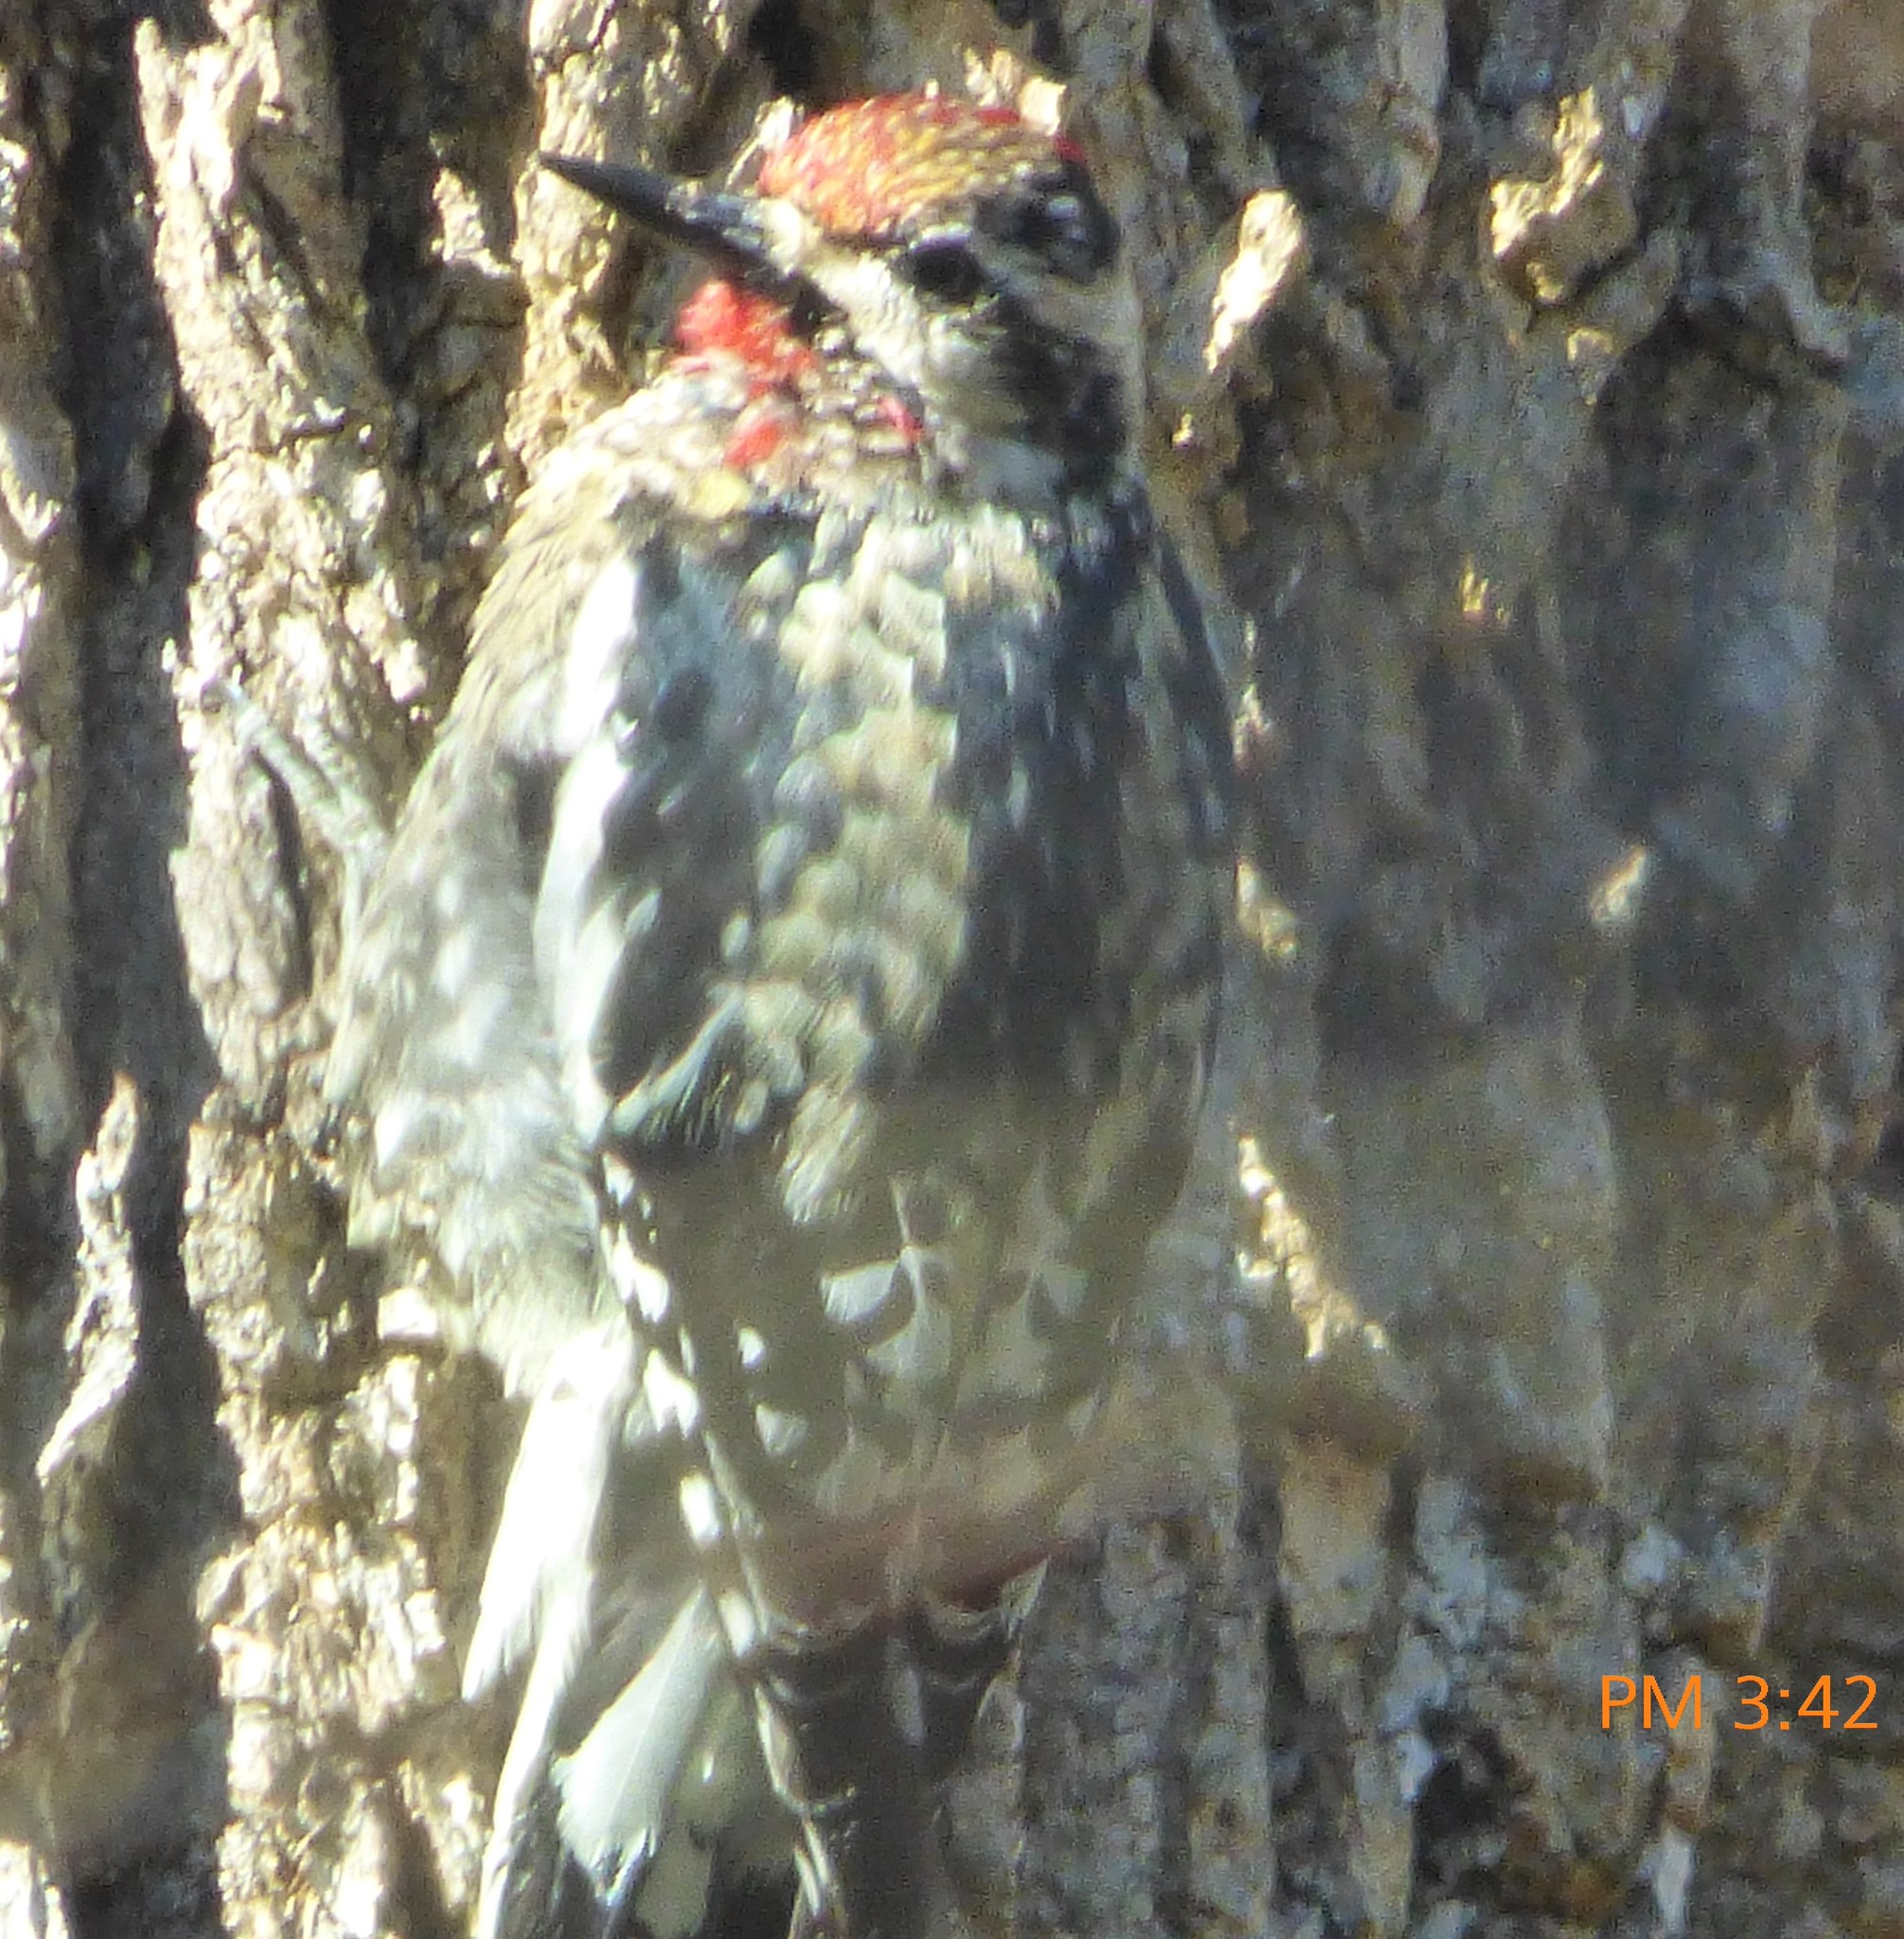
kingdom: Animalia
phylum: Chordata
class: Aves
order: Piciformes
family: Picidae
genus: Sphyrapicus
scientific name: Sphyrapicus varius
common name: Yellow-bellied sapsucker
